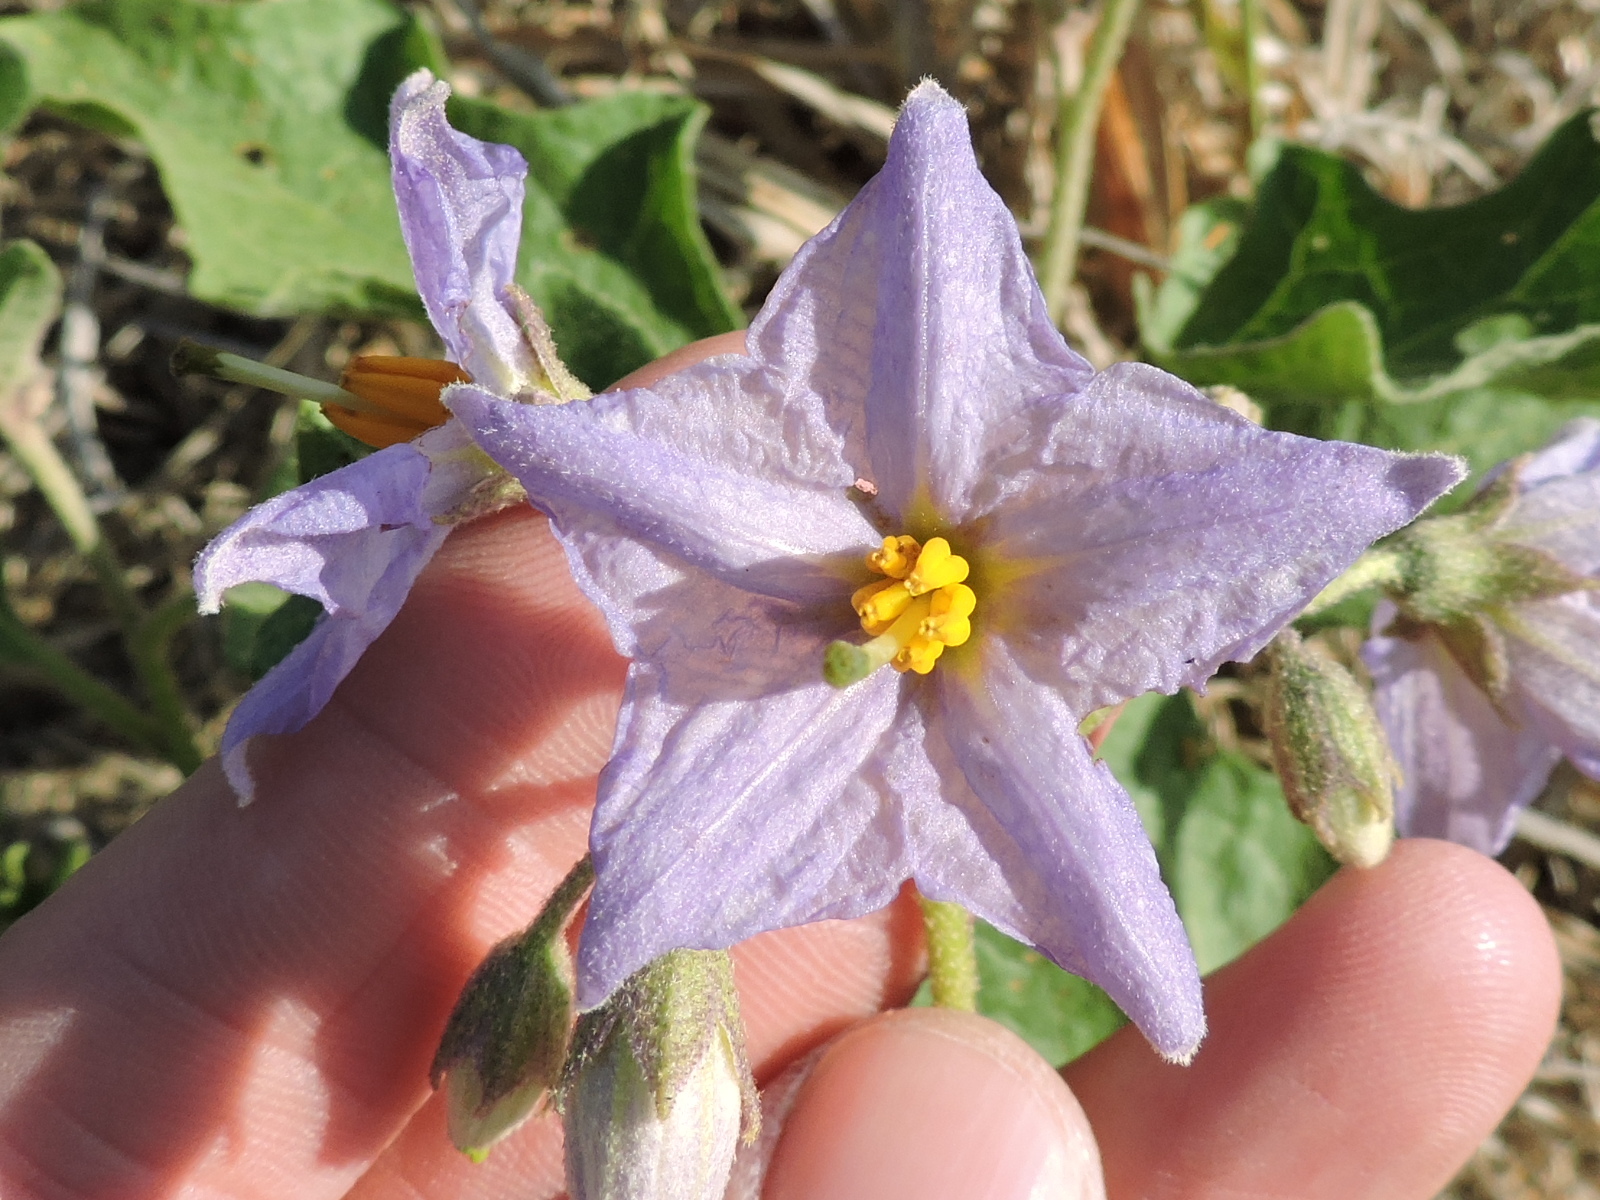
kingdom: Plantae
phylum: Tracheophyta
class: Magnoliopsida
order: Solanales
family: Solanaceae
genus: Solanum
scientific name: Solanum dimidiatum
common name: Carolina horse-nettle
